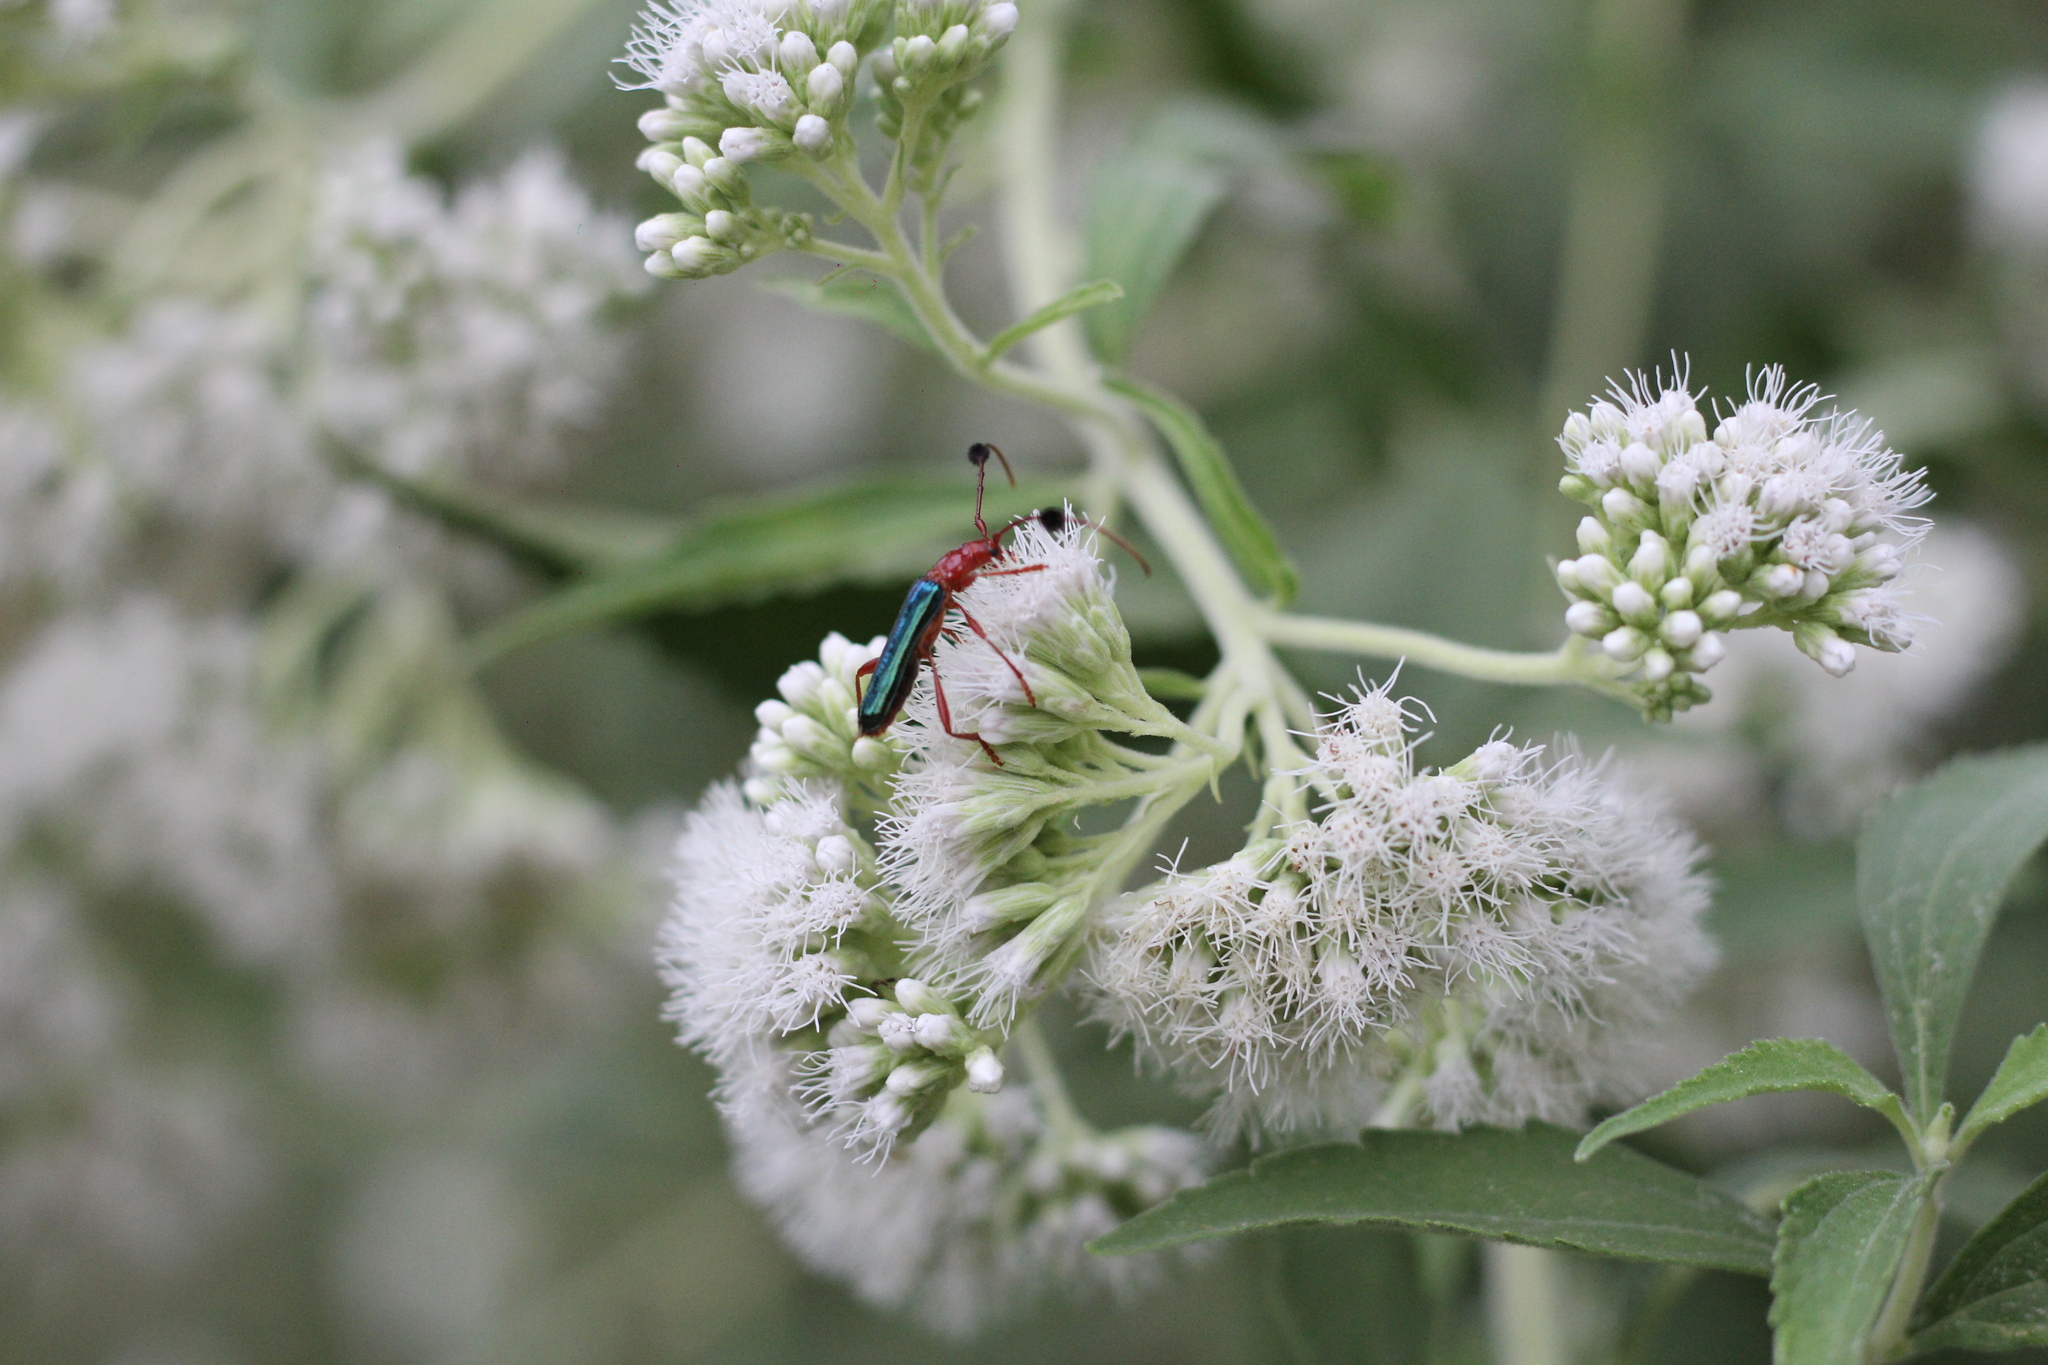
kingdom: Animalia
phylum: Arthropoda
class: Insecta
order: Coleoptera
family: Cerambycidae
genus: Paromoeocerus
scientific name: Paromoeocerus barbicornis
